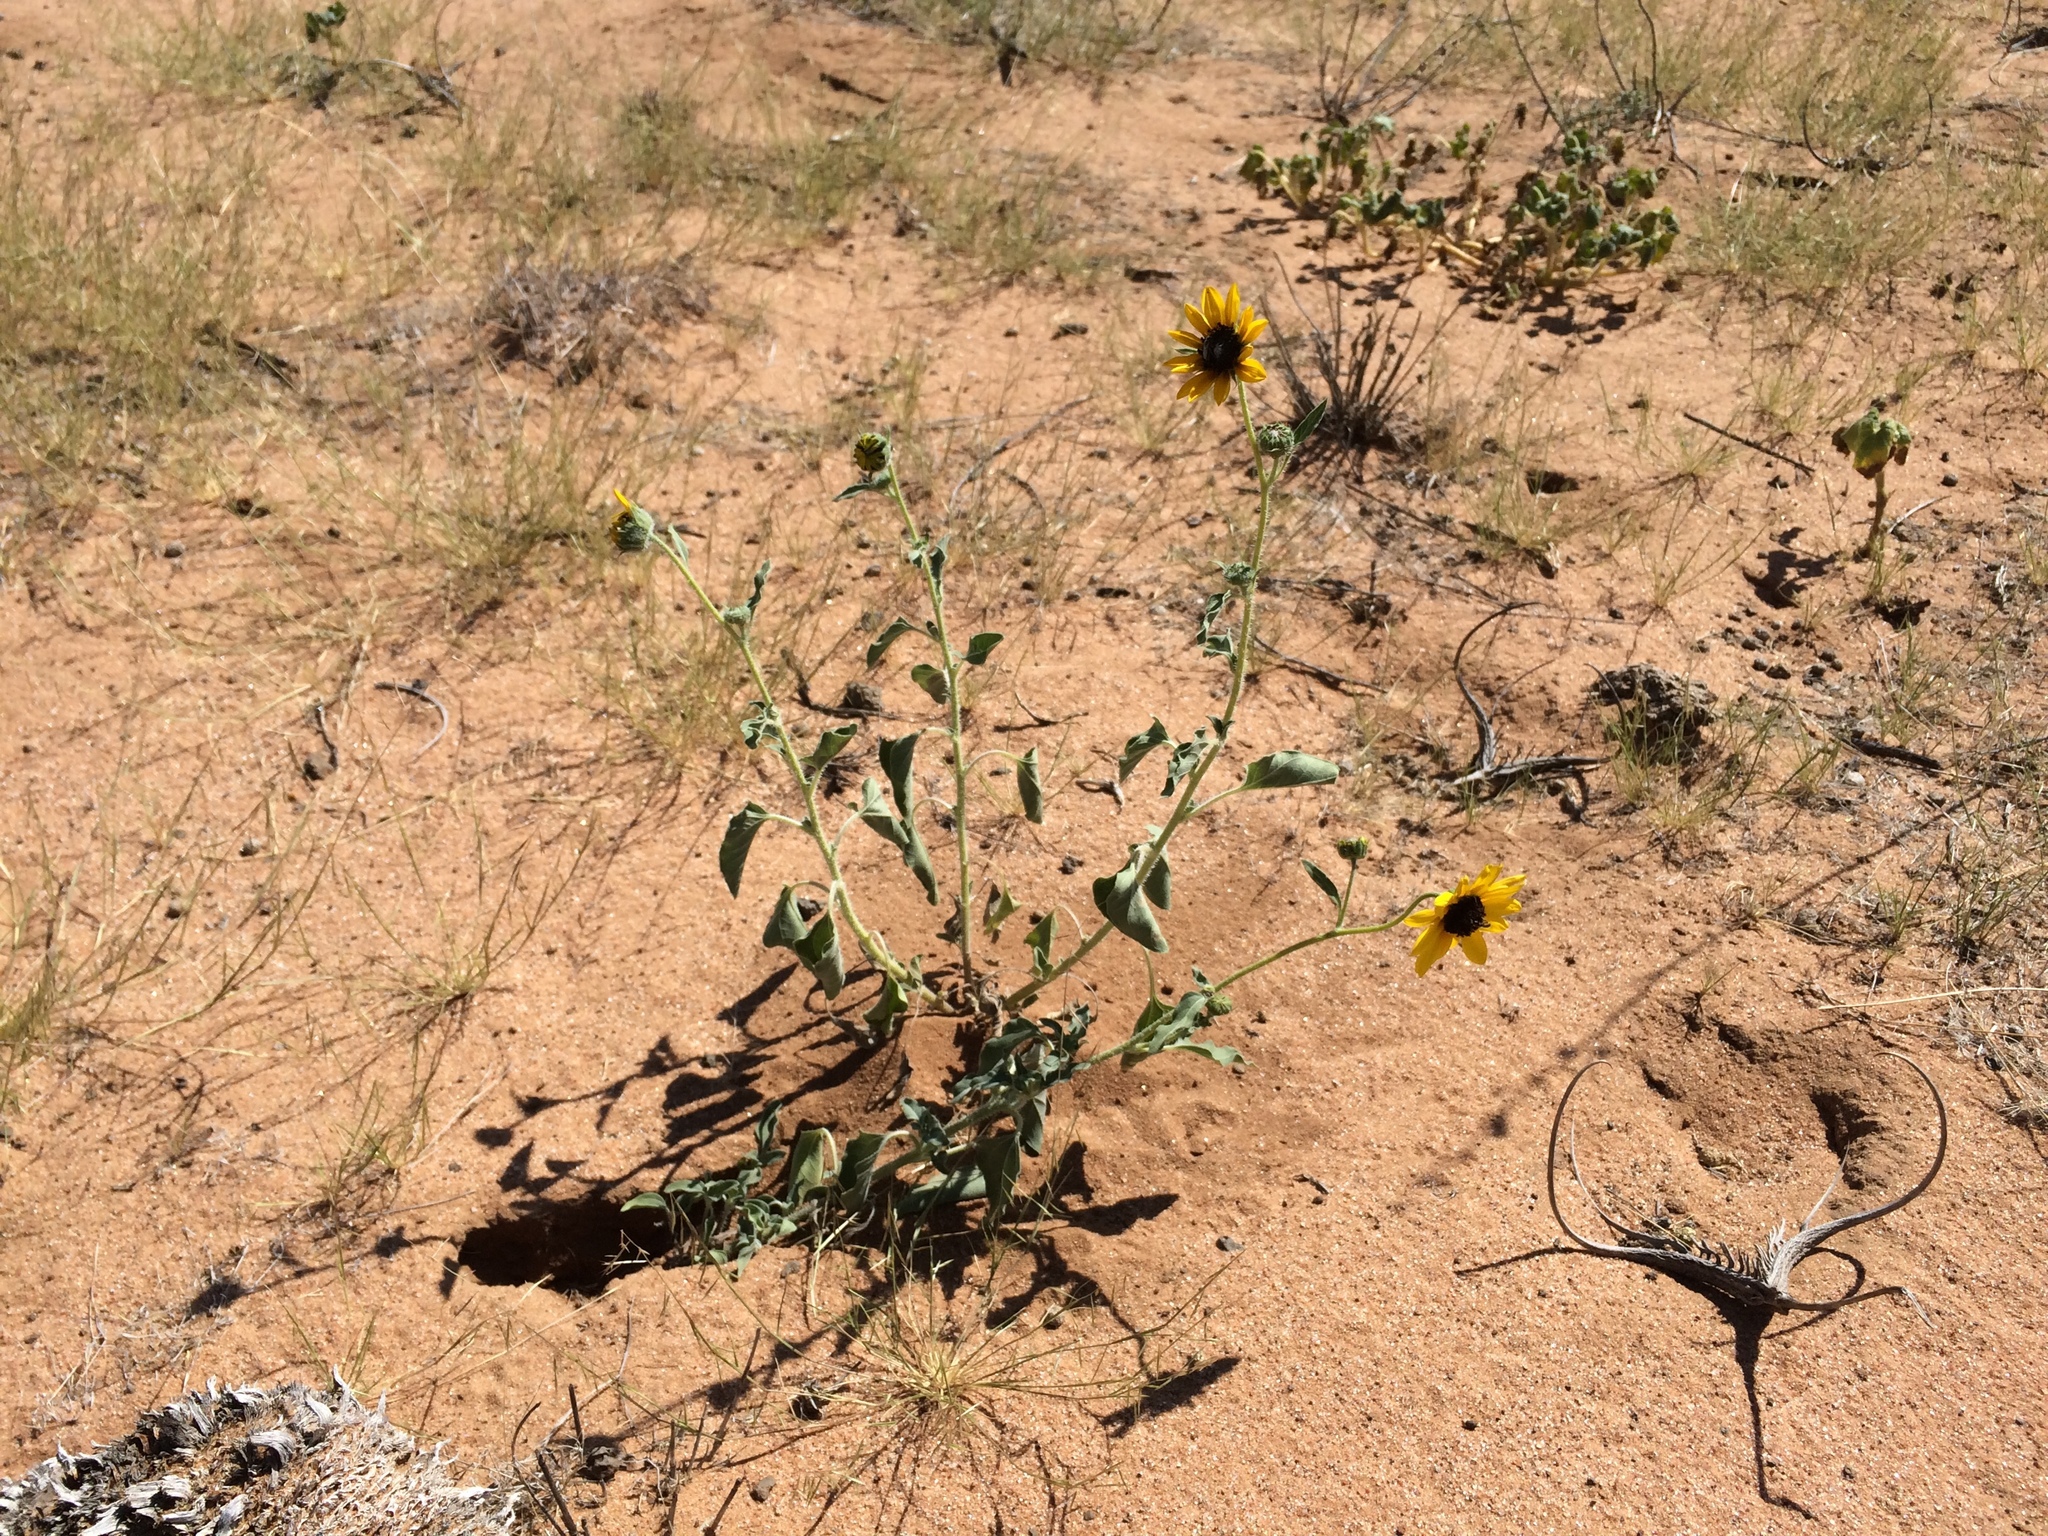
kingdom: Plantae
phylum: Tracheophyta
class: Magnoliopsida
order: Asterales
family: Asteraceae
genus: Helianthus
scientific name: Helianthus petiolaris
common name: Lesser sunflower
